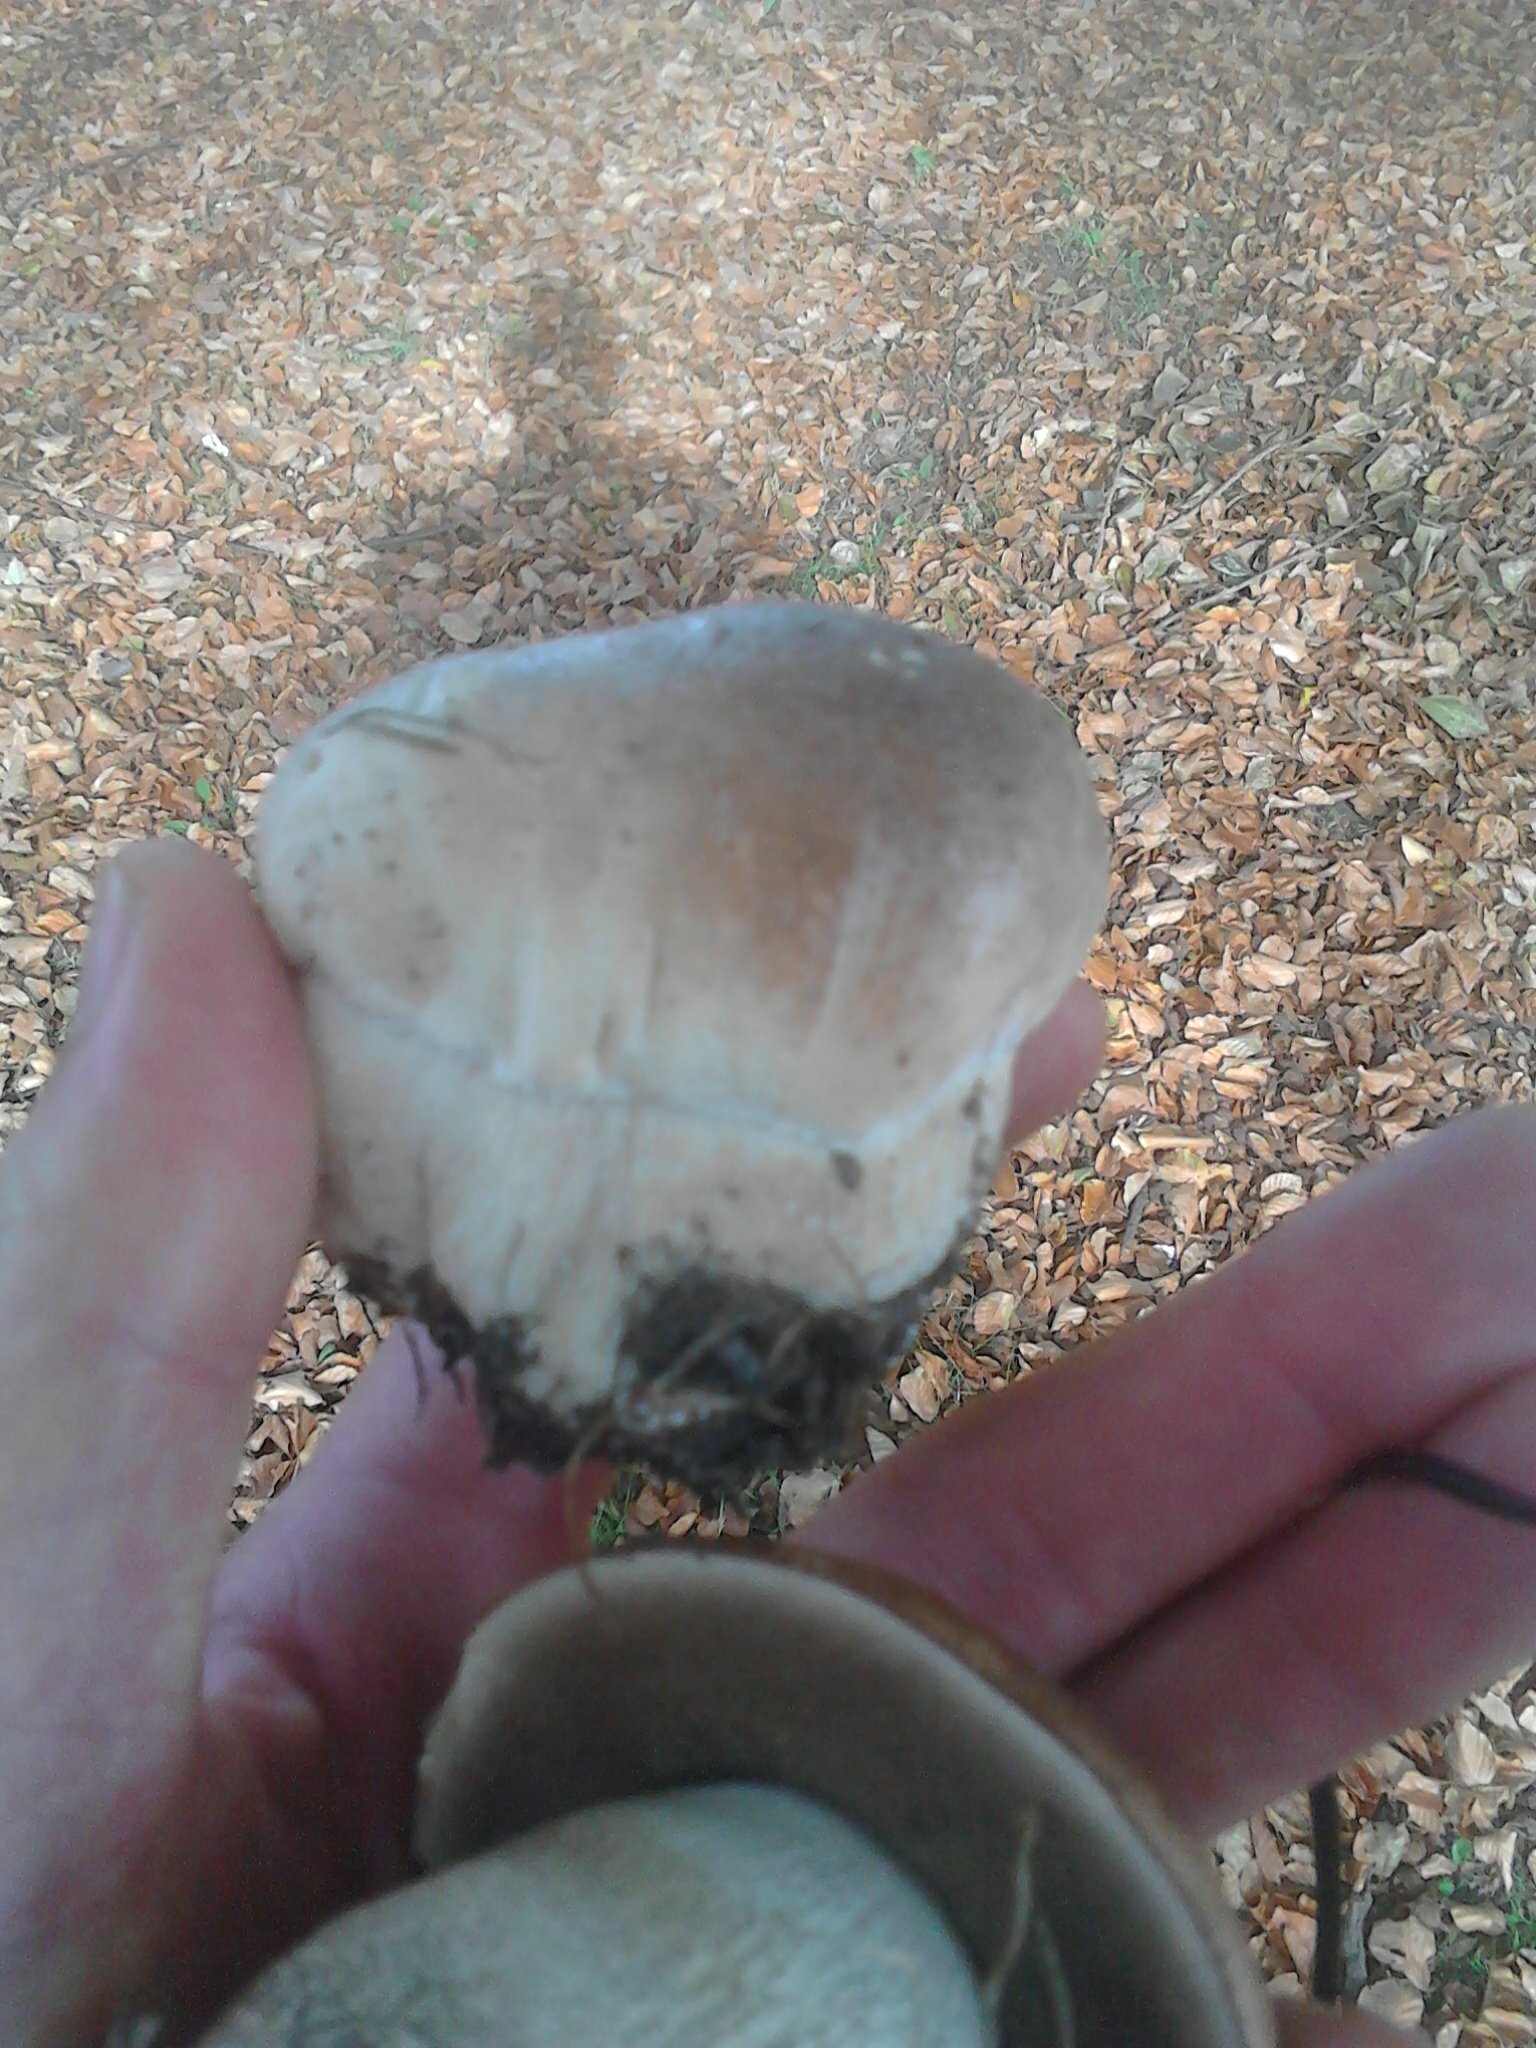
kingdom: Fungi
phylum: Basidiomycota
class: Agaricomycetes
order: Boletales
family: Boletaceae
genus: Boletus
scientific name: Boletus edulis
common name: Cep
